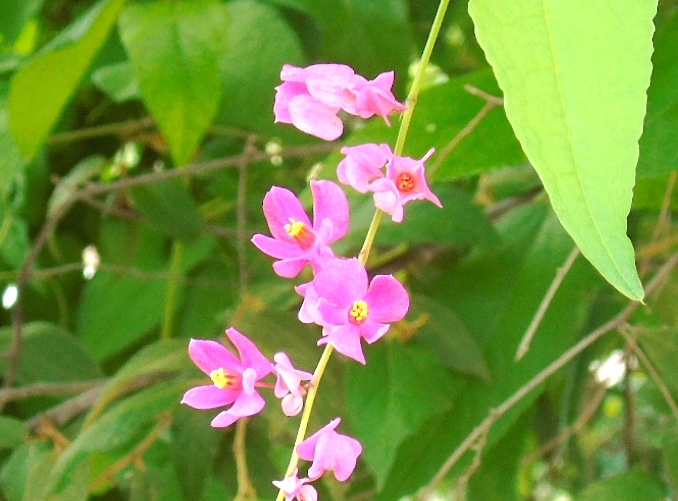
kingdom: Plantae
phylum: Tracheophyta
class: Magnoliopsida
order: Caryophyllales
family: Polygonaceae
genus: Antigonon
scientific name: Antigonon leptopus
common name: Coral vine
